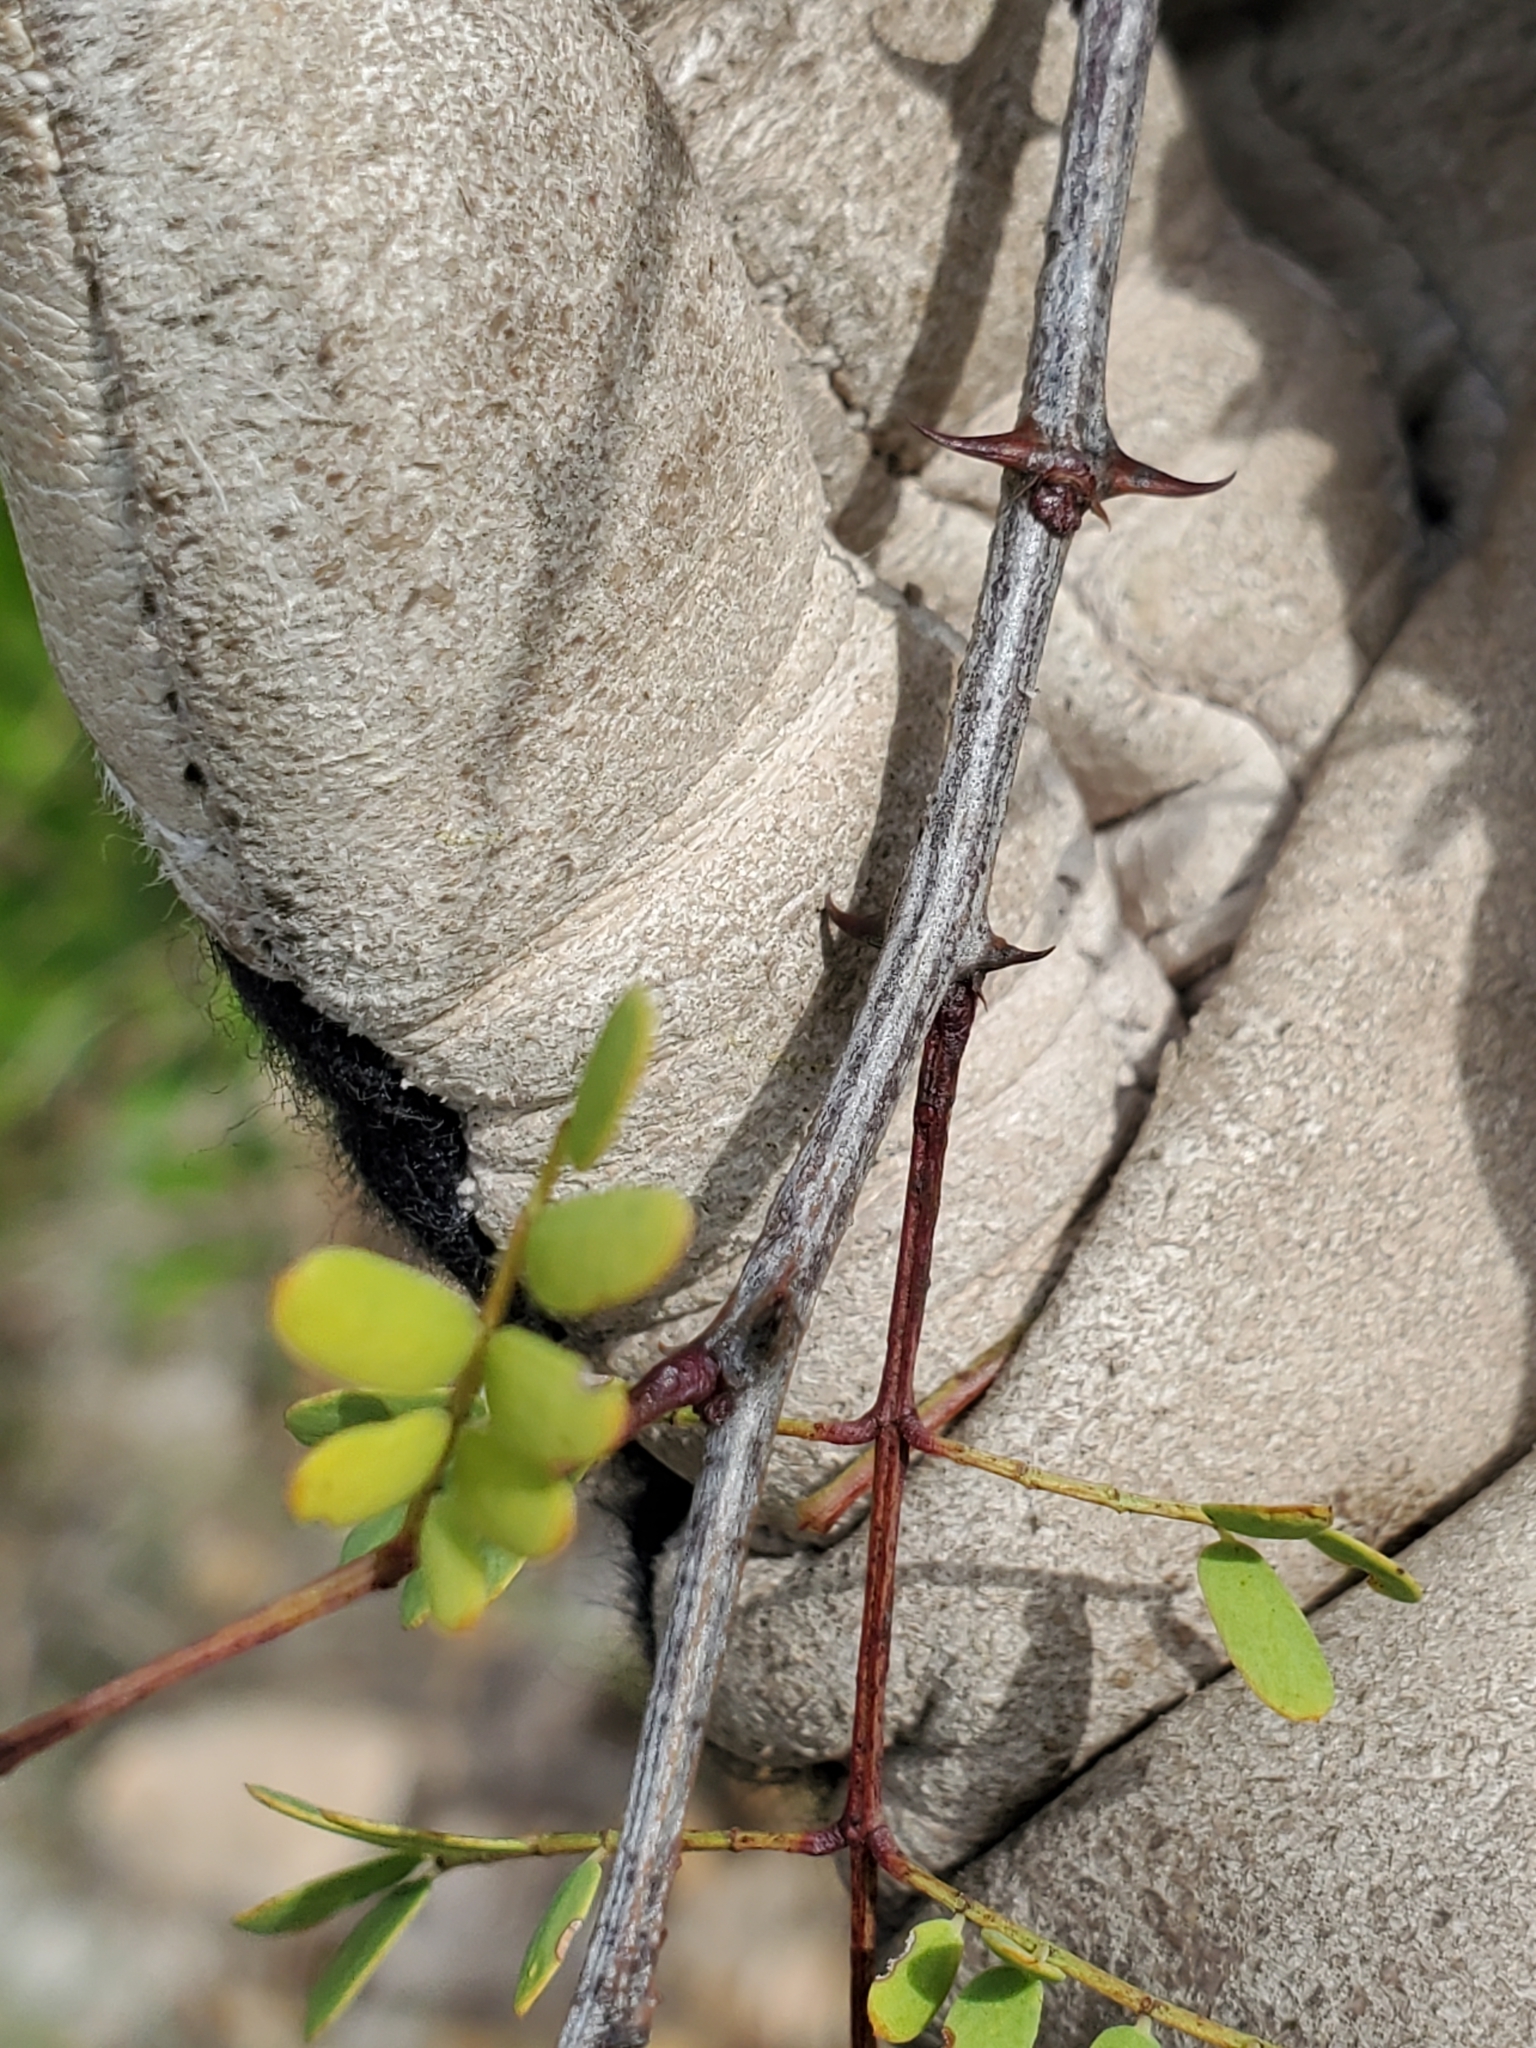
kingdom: Plantae
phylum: Tracheophyta
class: Magnoliopsida
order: Fabales
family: Fabaceae
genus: Senegalia
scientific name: Senegalia roemeriana
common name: Roemer's acacia
